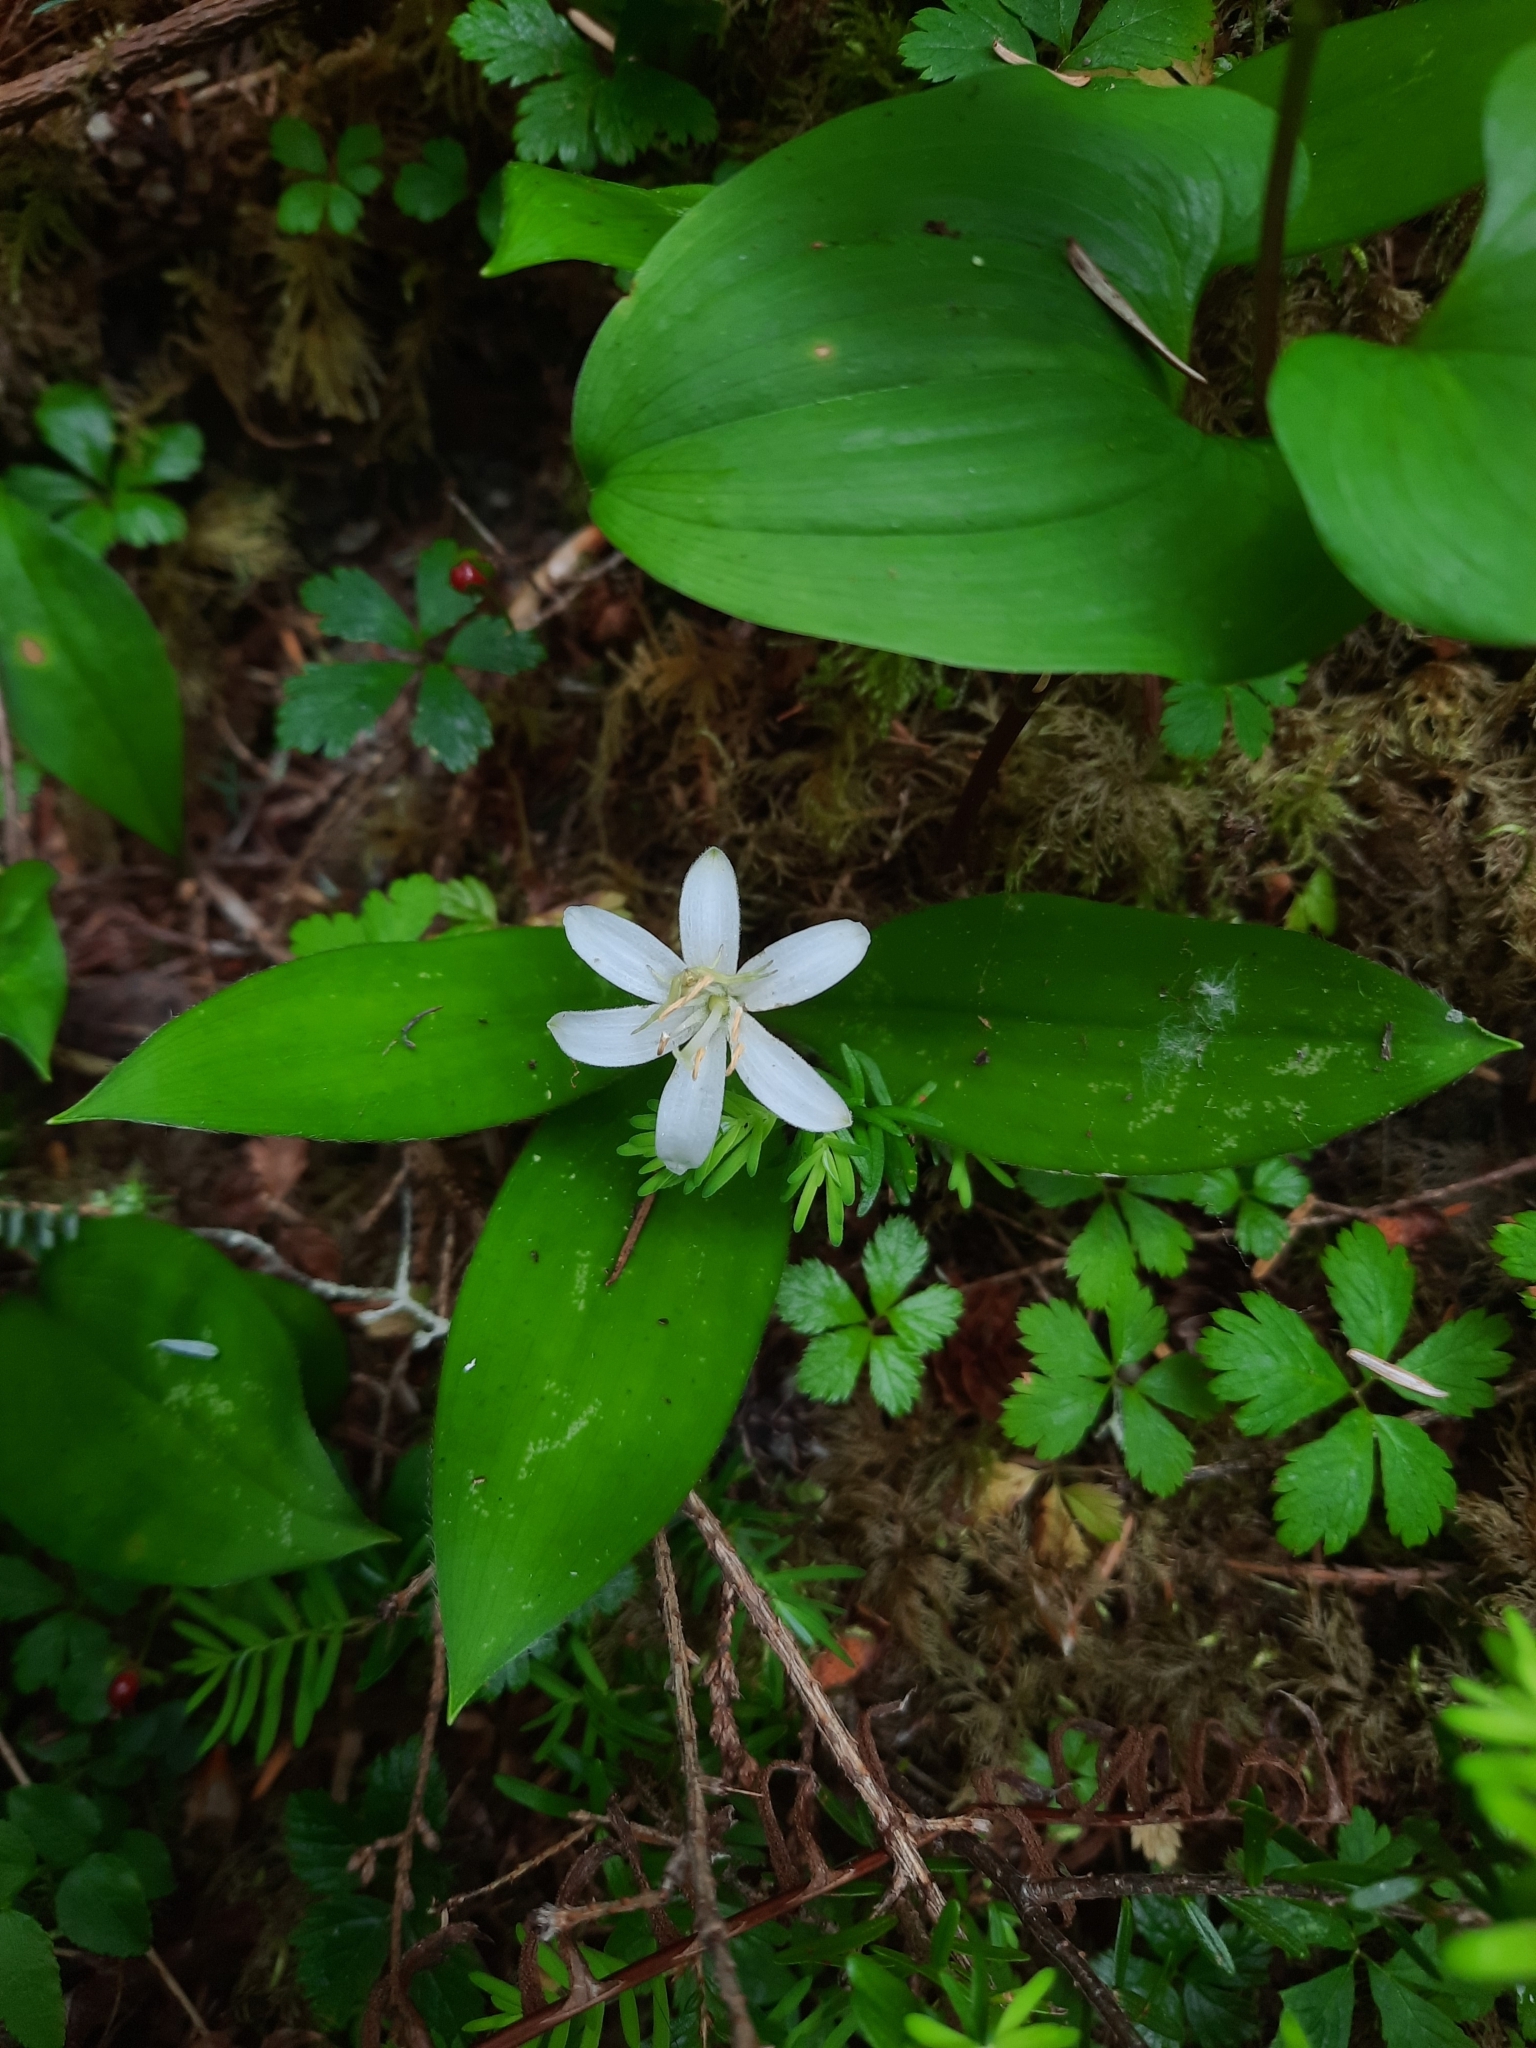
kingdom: Plantae
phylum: Tracheophyta
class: Liliopsida
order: Liliales
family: Liliaceae
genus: Clintonia
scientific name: Clintonia uniflora
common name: Queen's cup
